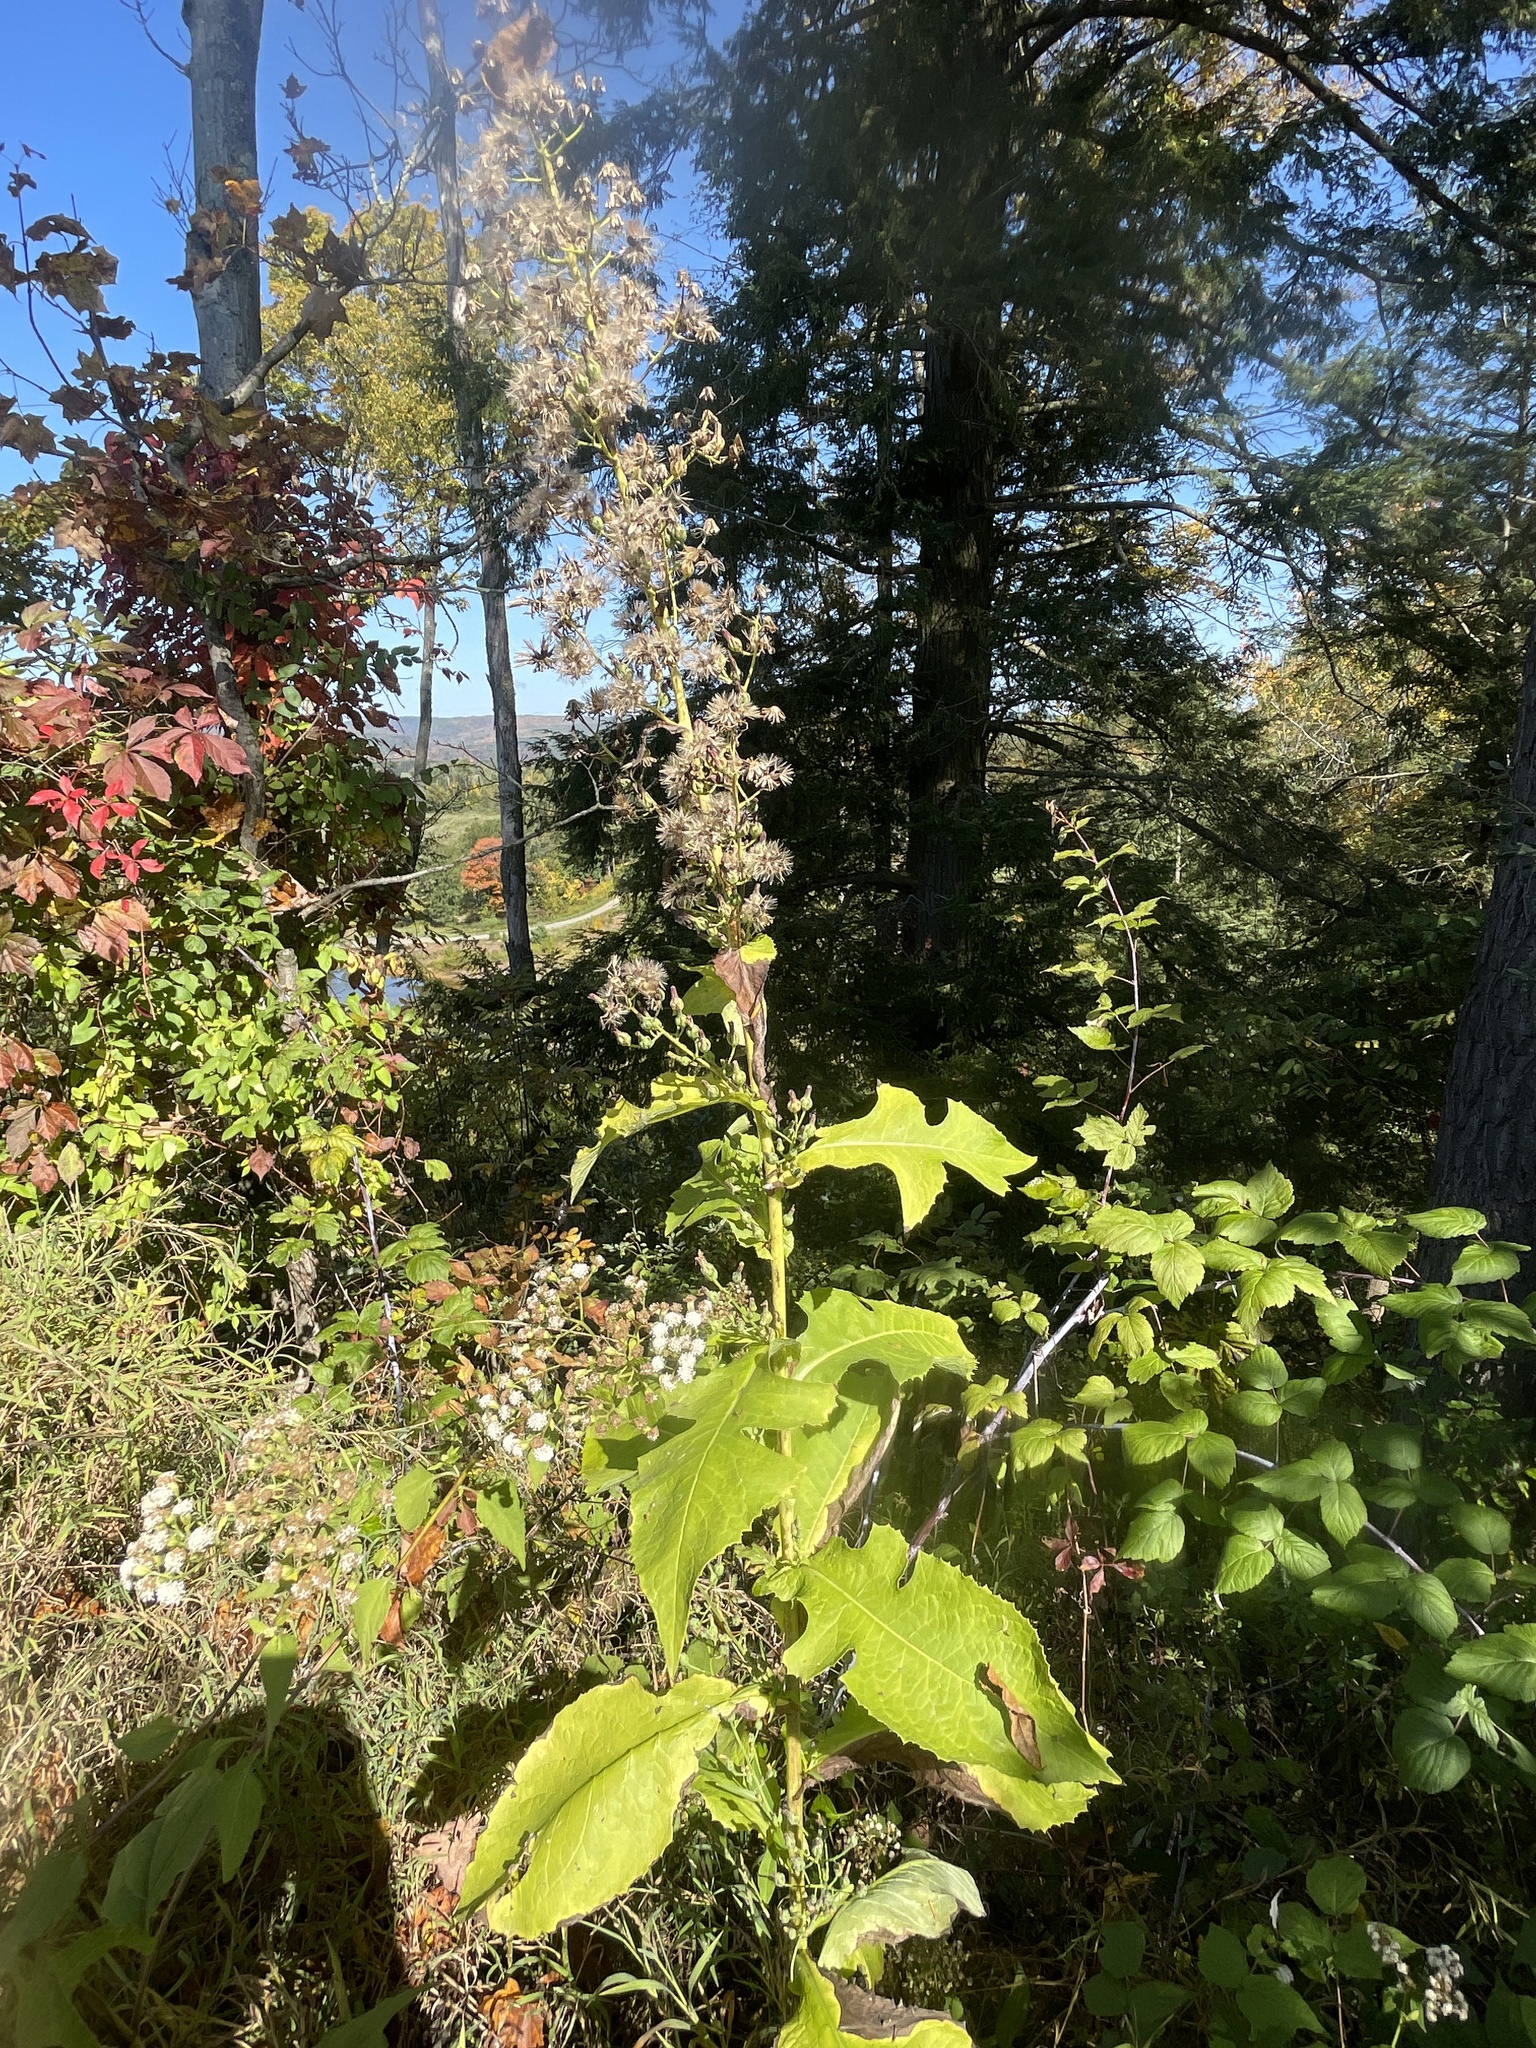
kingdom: Plantae
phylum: Tracheophyta
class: Magnoliopsida
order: Asterales
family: Asteraceae
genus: Lactuca
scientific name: Lactuca biennis
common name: Blue wood lettuce
